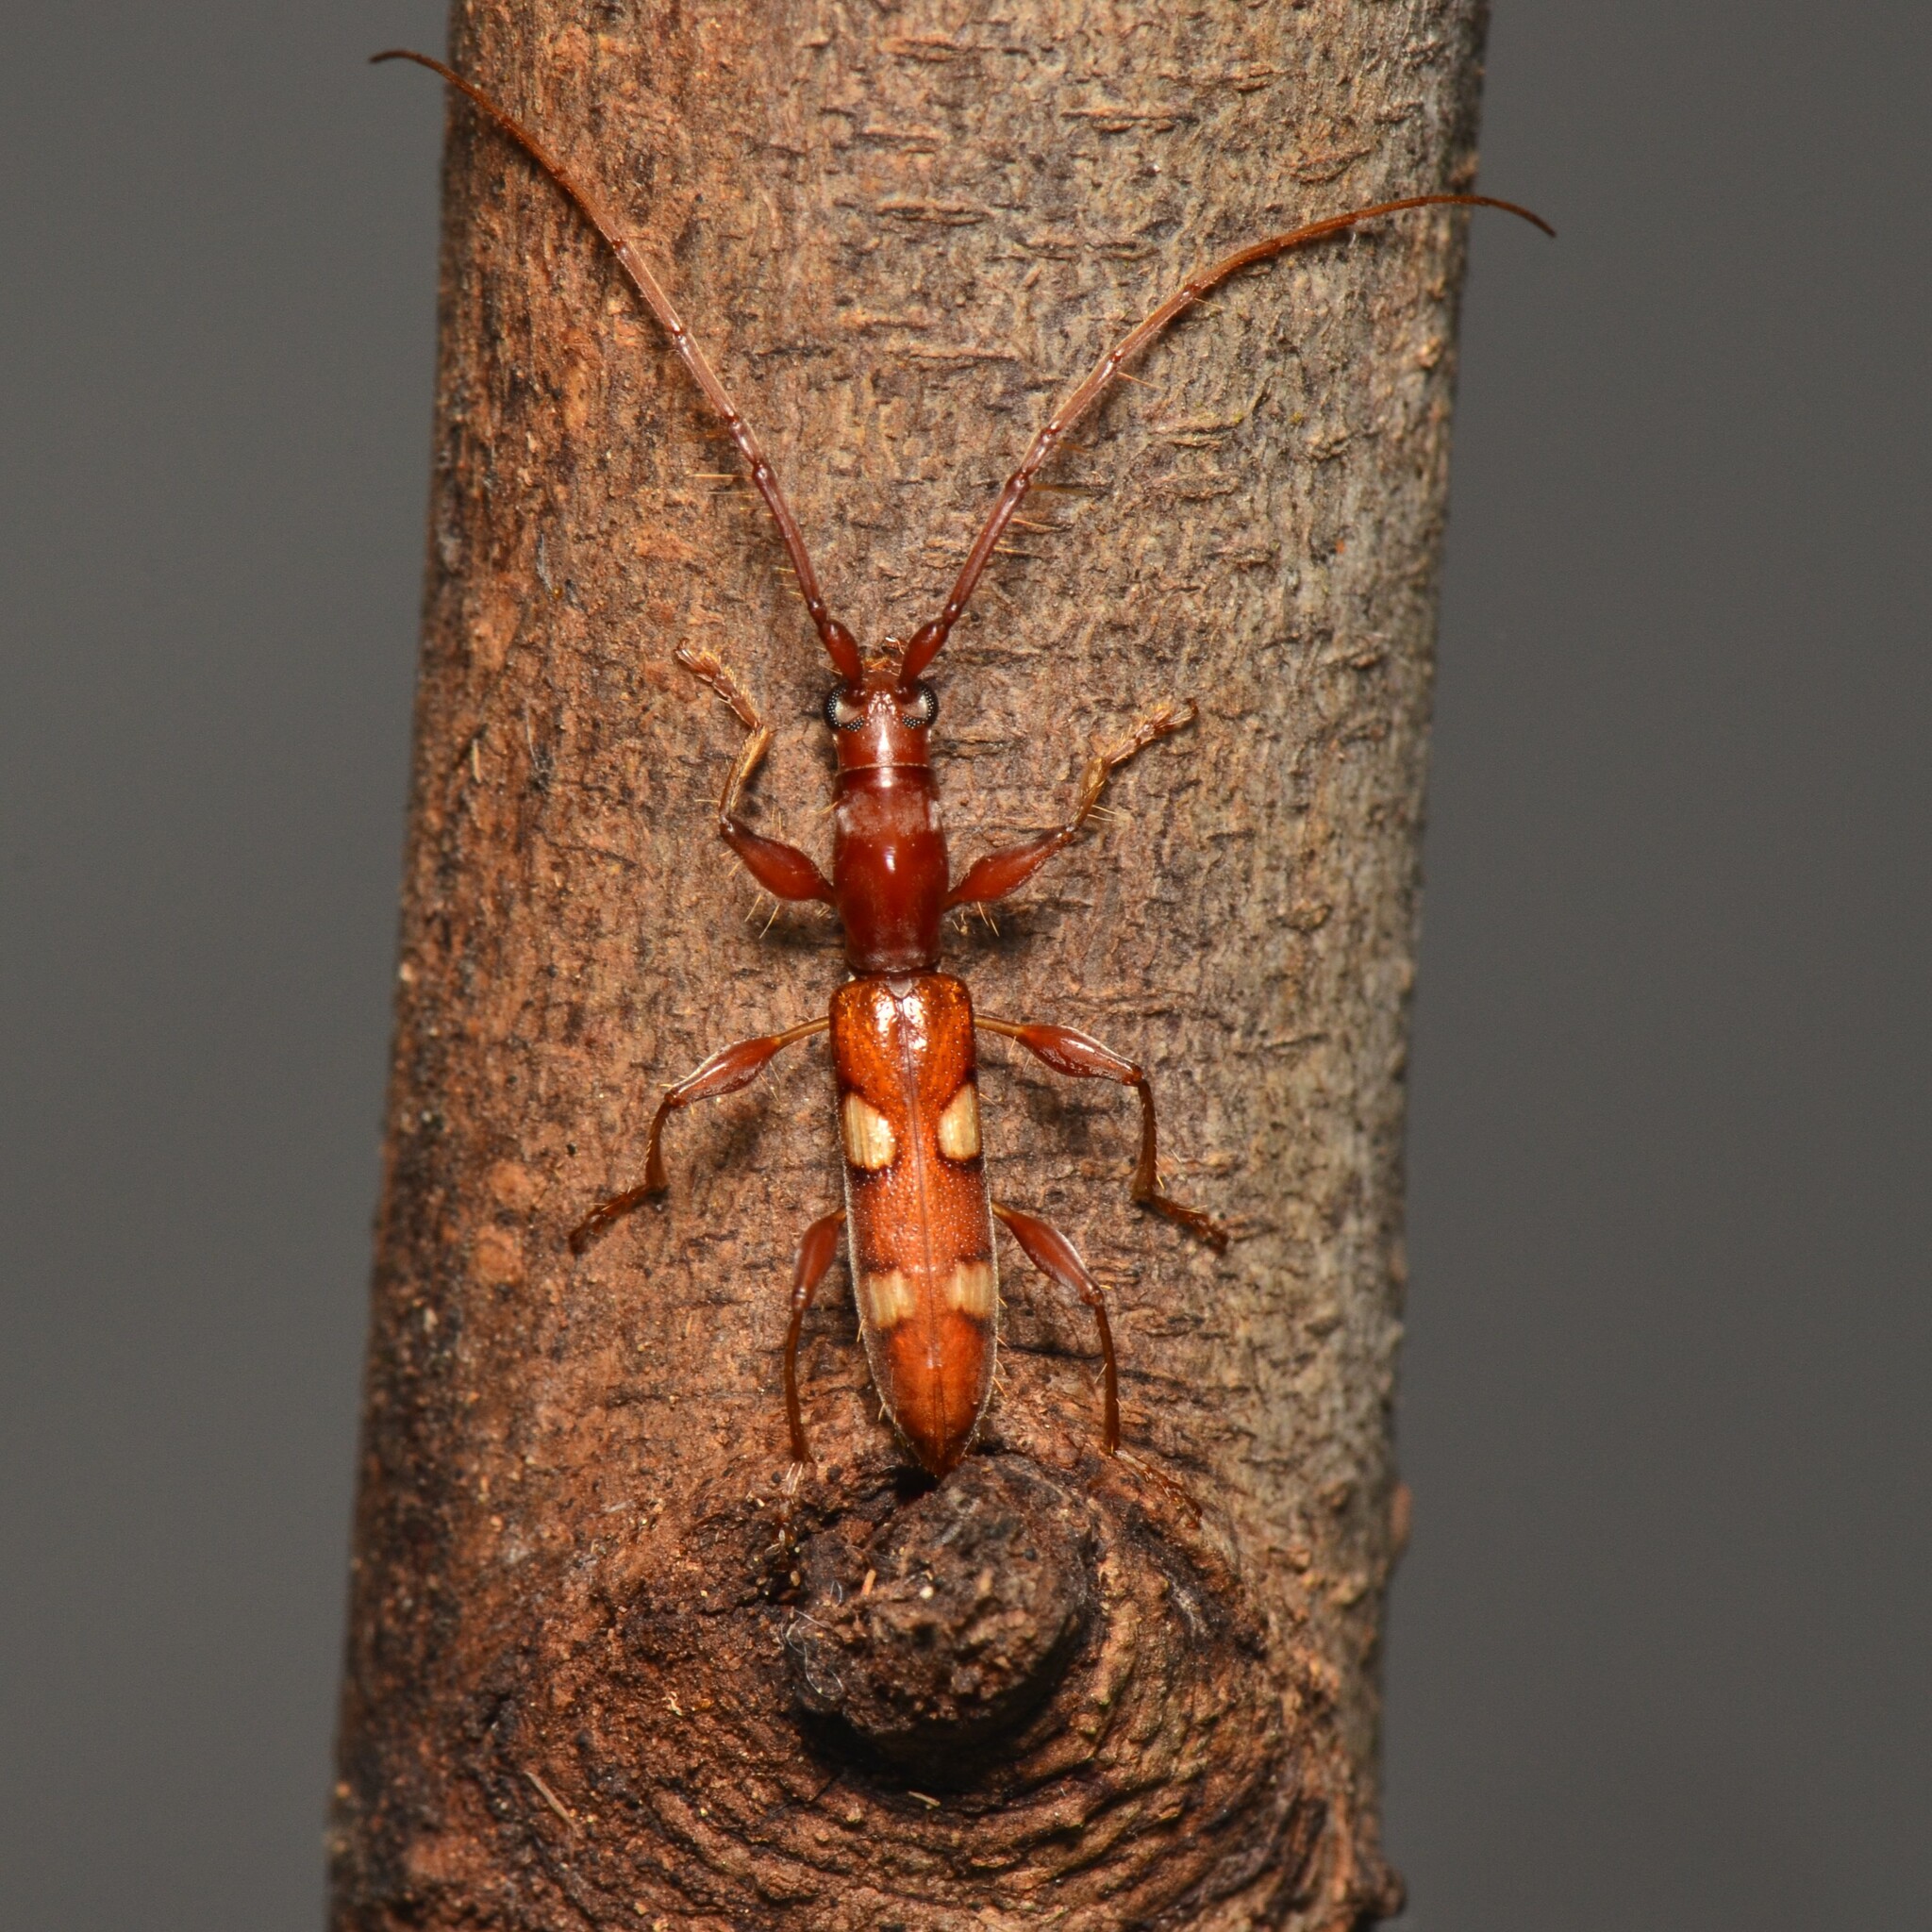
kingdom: Animalia
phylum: Arthropoda
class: Insecta
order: Coleoptera
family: Cerambycidae
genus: Neocompsa
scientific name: Neocompsa alacris
